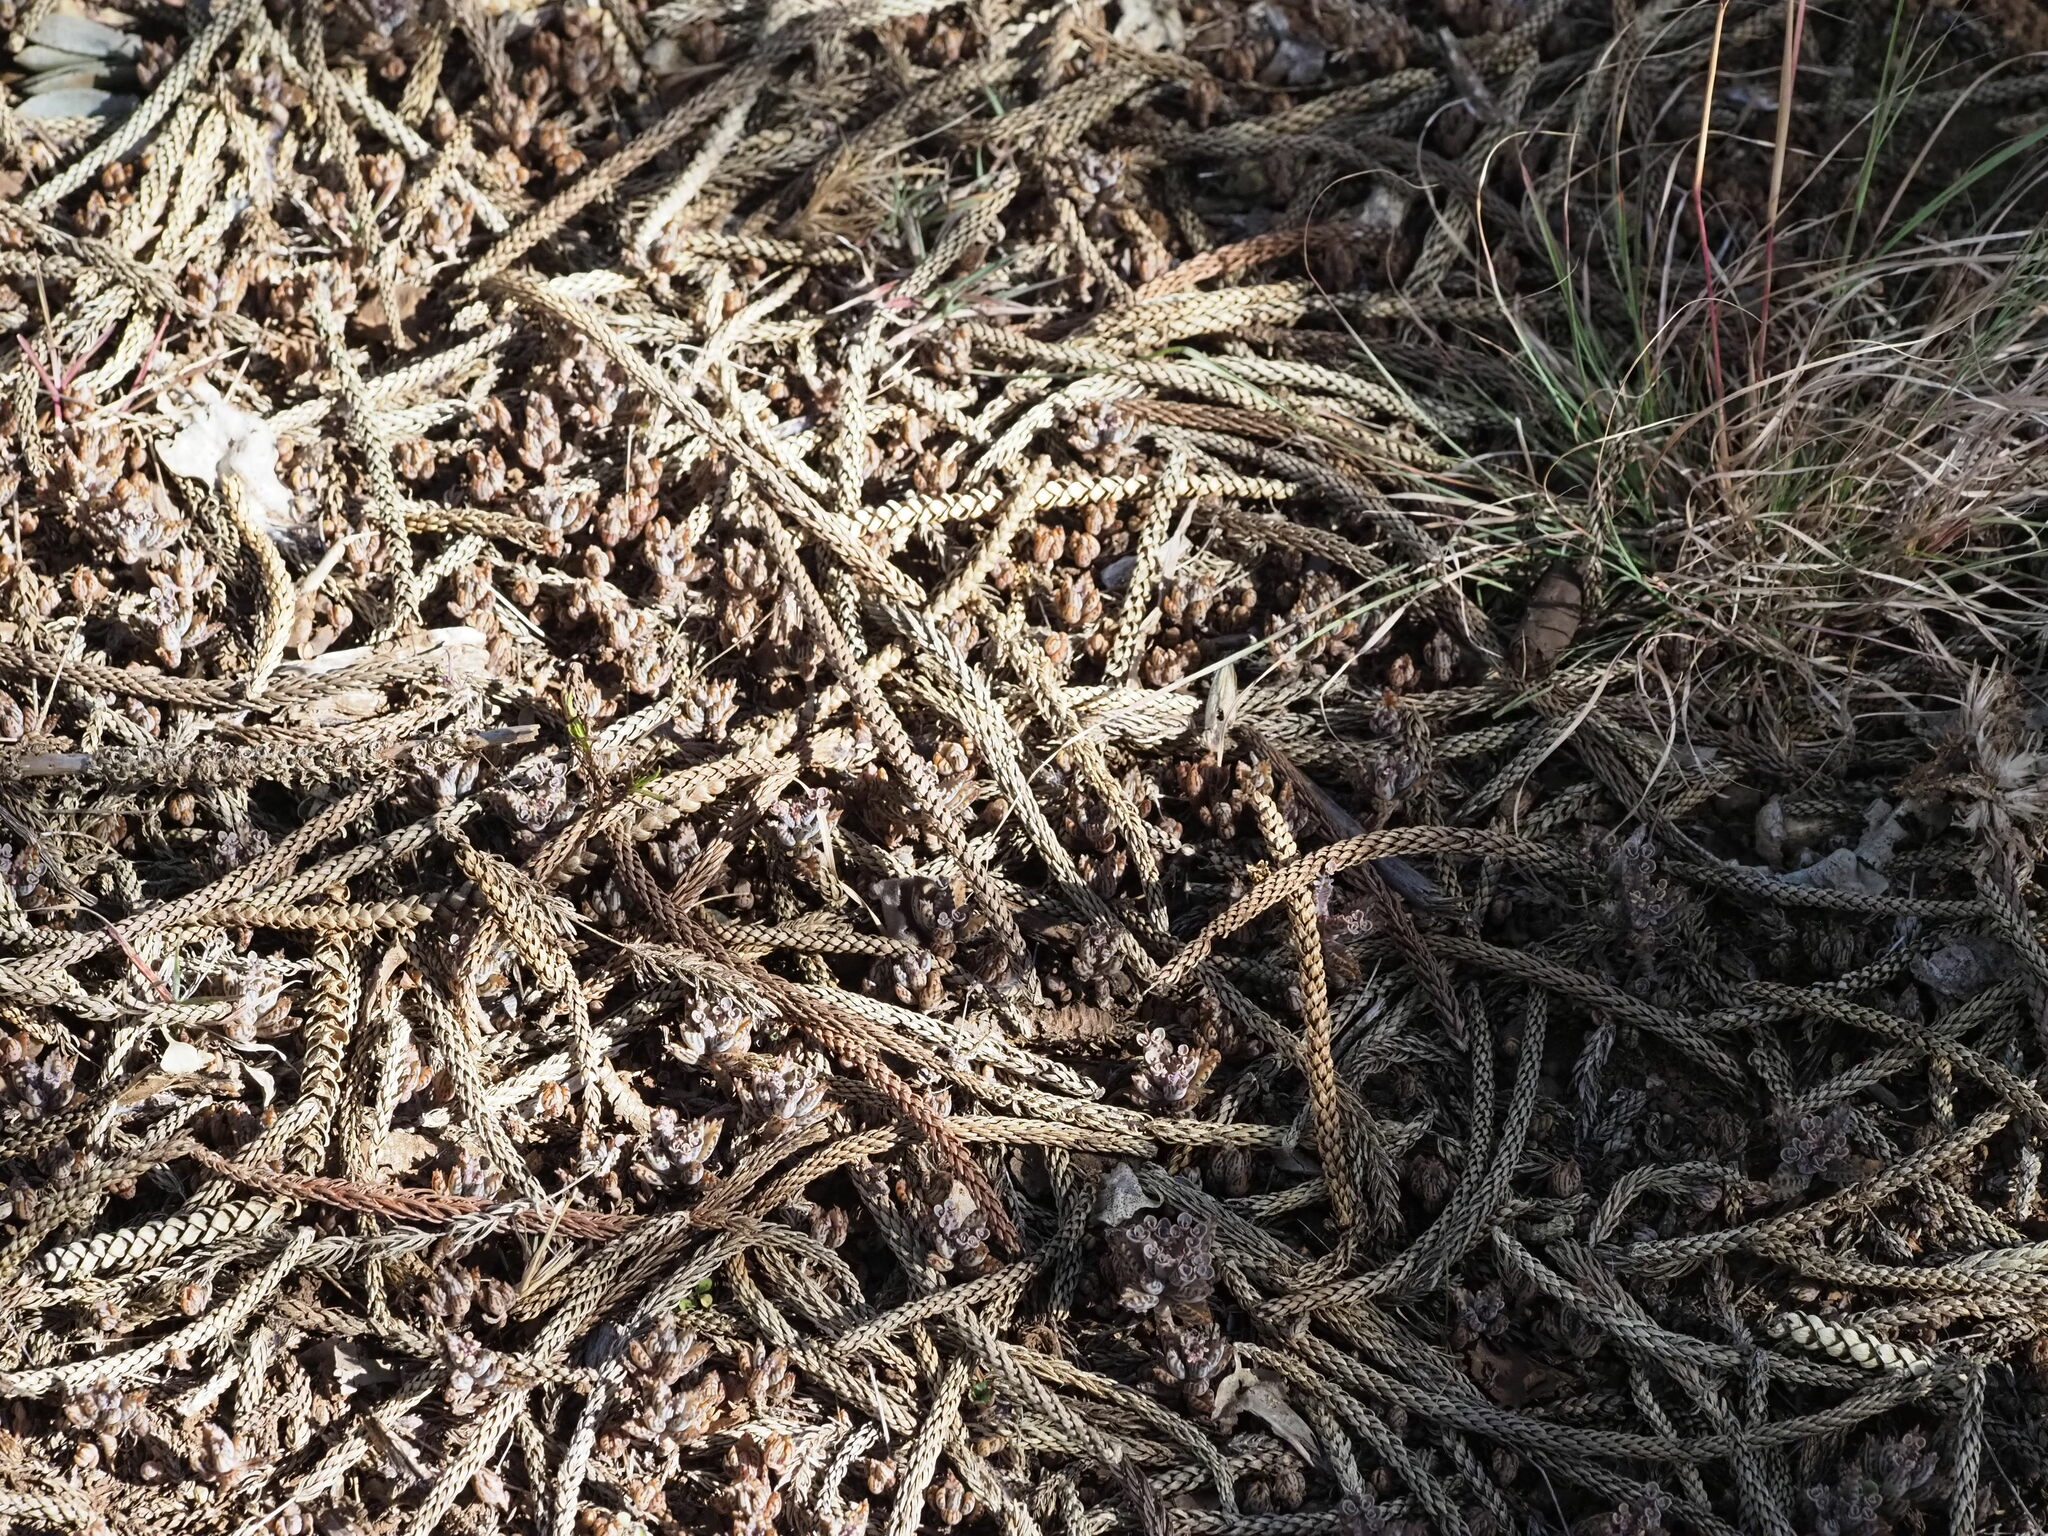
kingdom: Plantae
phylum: Tracheophyta
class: Magnoliopsida
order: Saxifragales
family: Crassulaceae
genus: Kalanchoe
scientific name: Kalanchoe houghtonii
